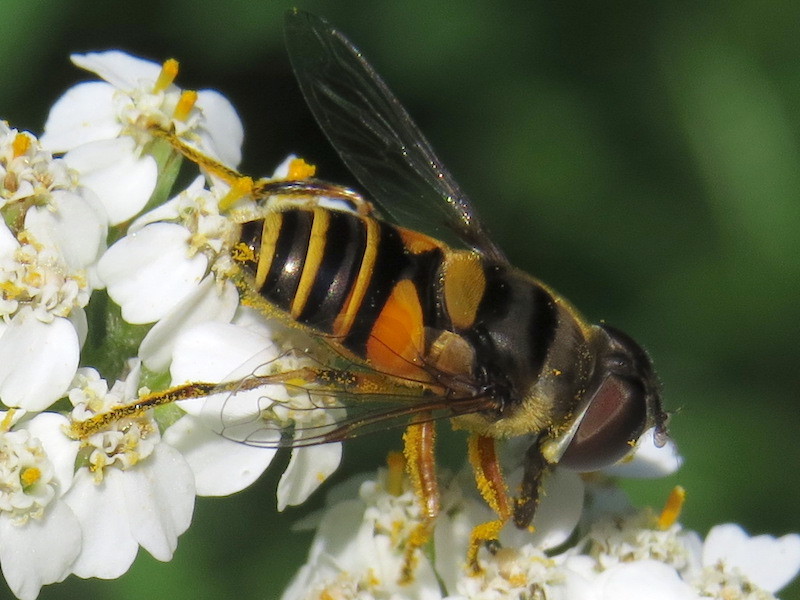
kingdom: Animalia
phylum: Arthropoda
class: Insecta
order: Diptera
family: Syrphidae
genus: Eristalis
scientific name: Eristalis transversa
